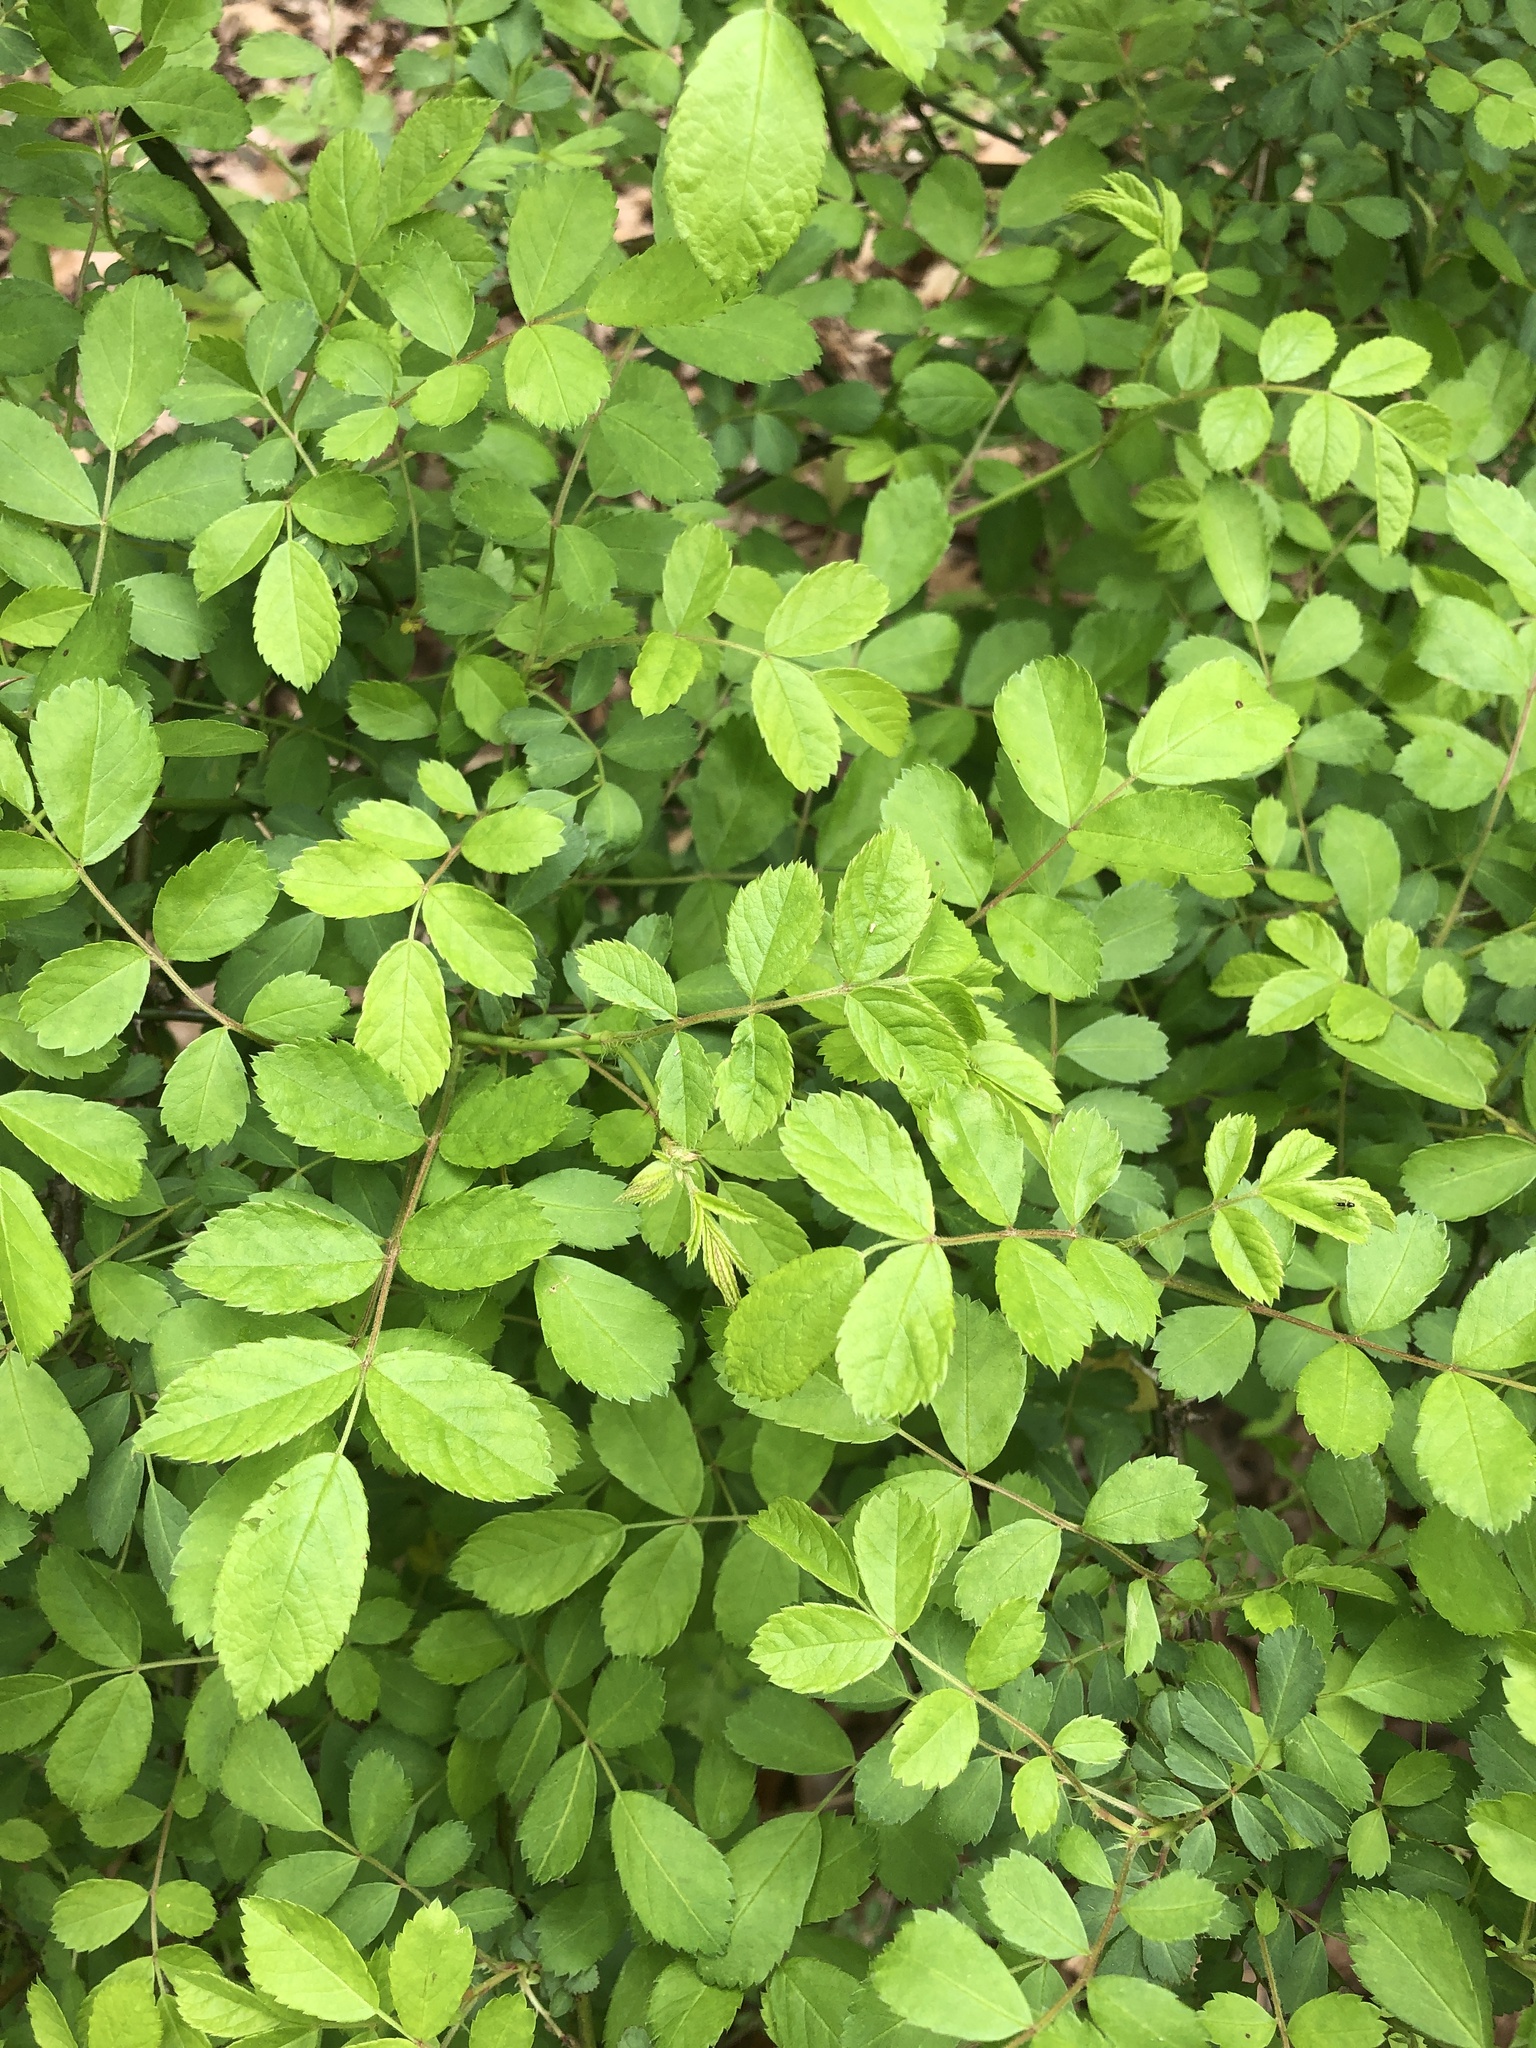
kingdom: Plantae
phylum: Tracheophyta
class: Magnoliopsida
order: Rosales
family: Rosaceae
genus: Rosa
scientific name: Rosa multiflora
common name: Multiflora rose
